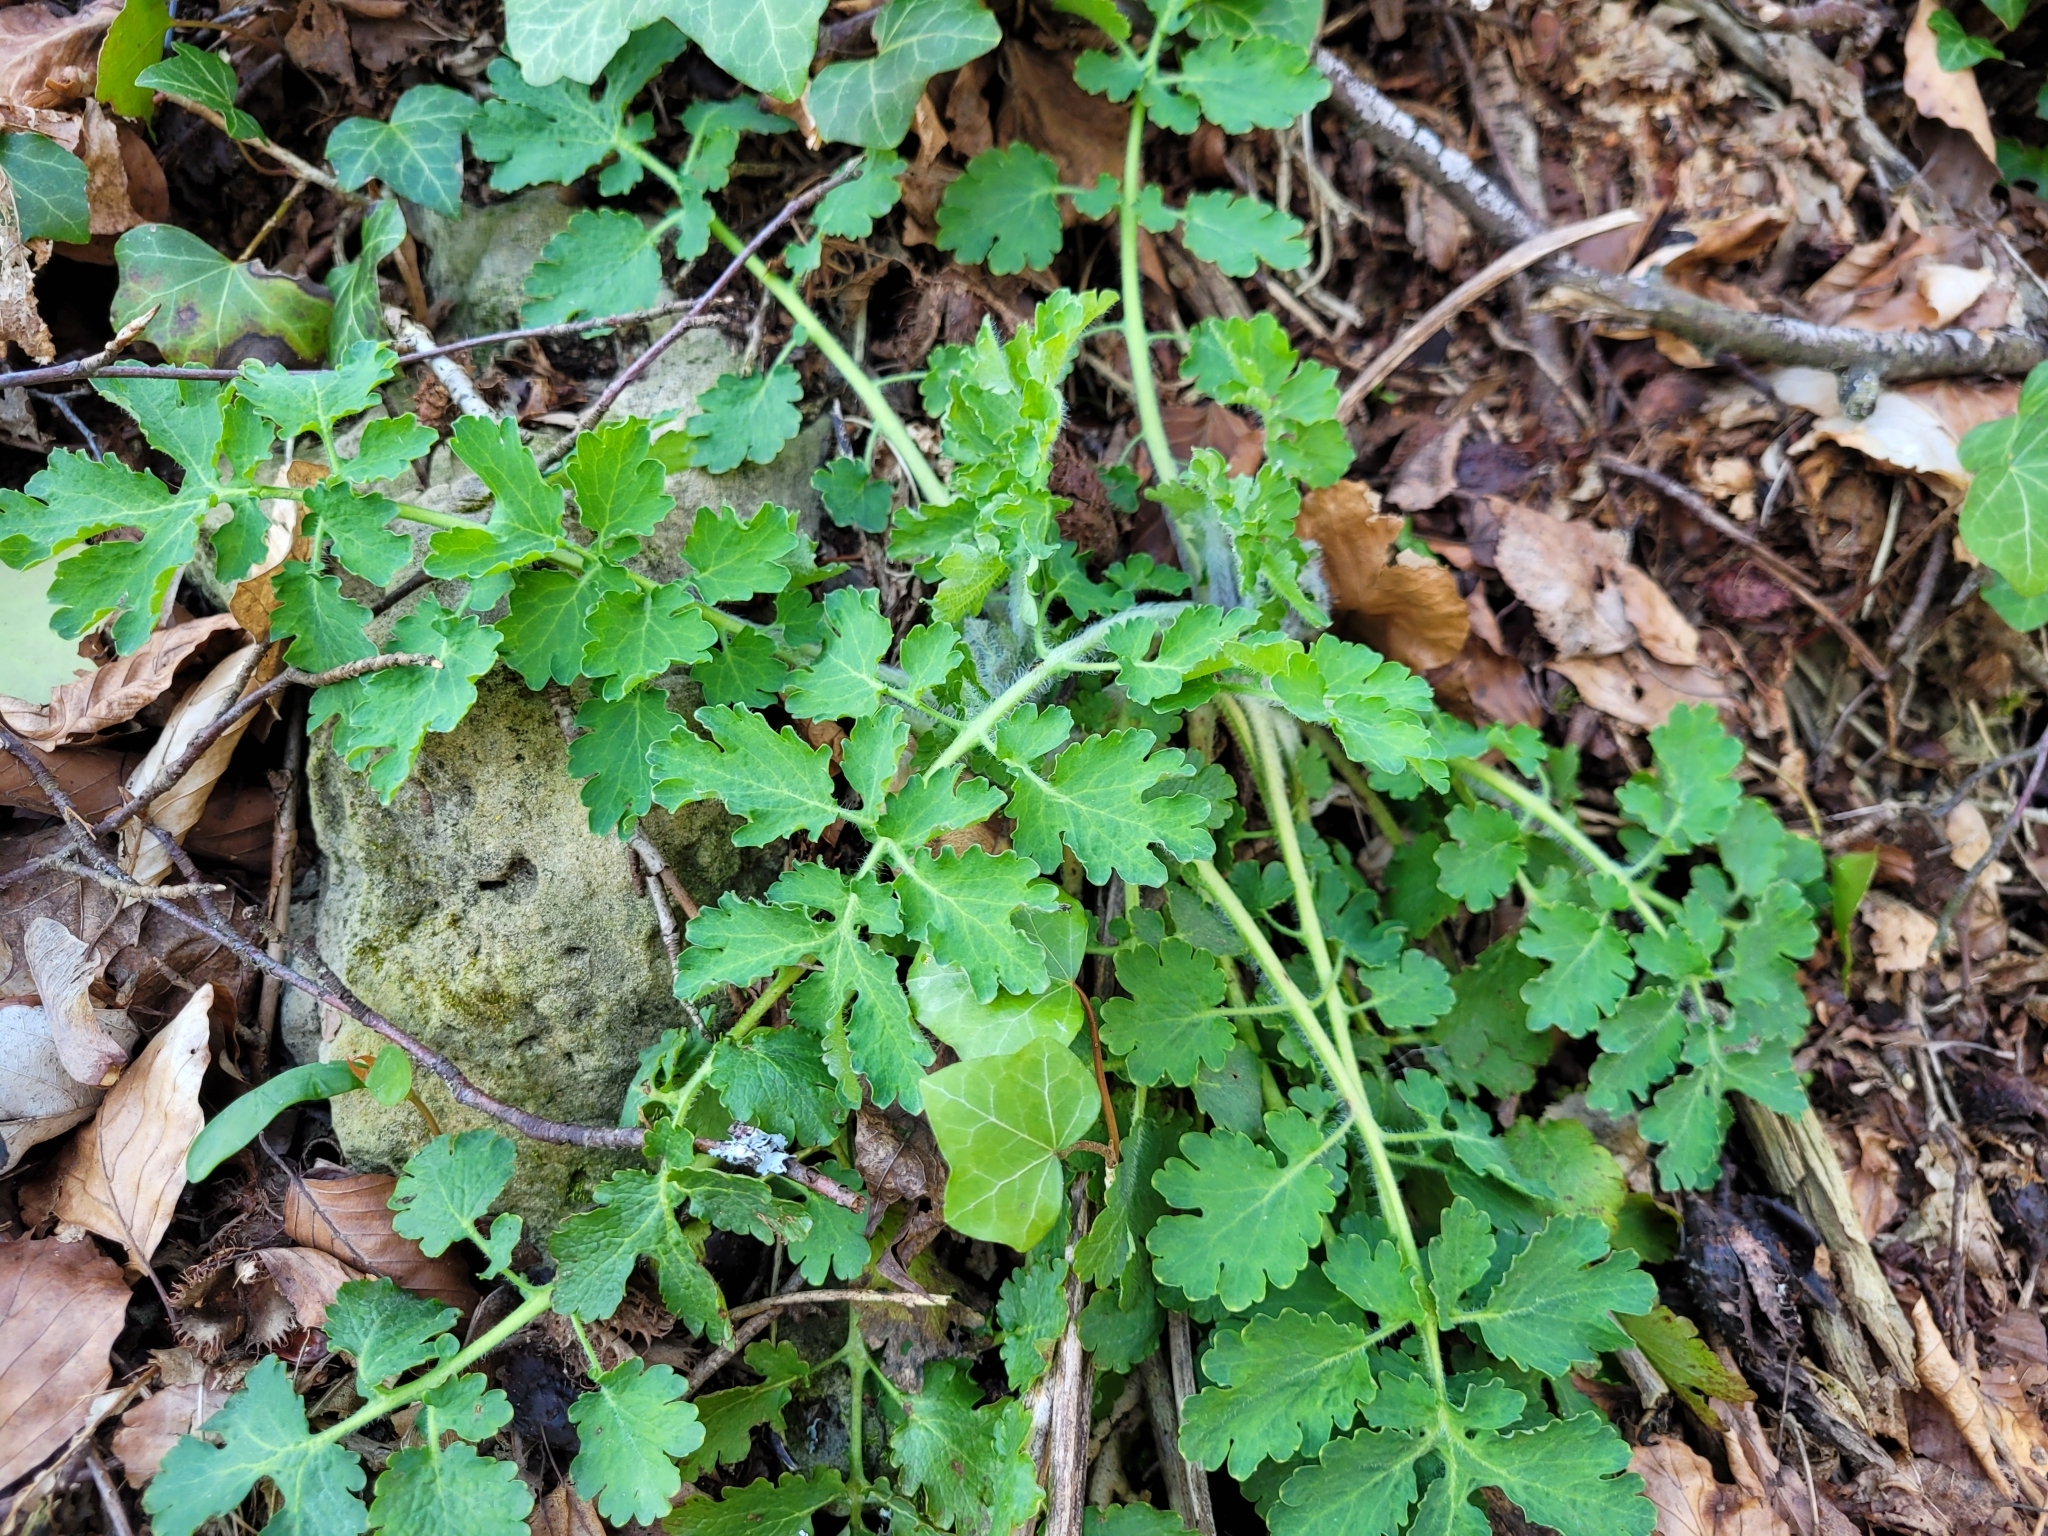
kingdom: Plantae
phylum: Tracheophyta
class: Magnoliopsida
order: Ranunculales
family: Papaveraceae
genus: Chelidonium
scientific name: Chelidonium majus
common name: Greater celandine
